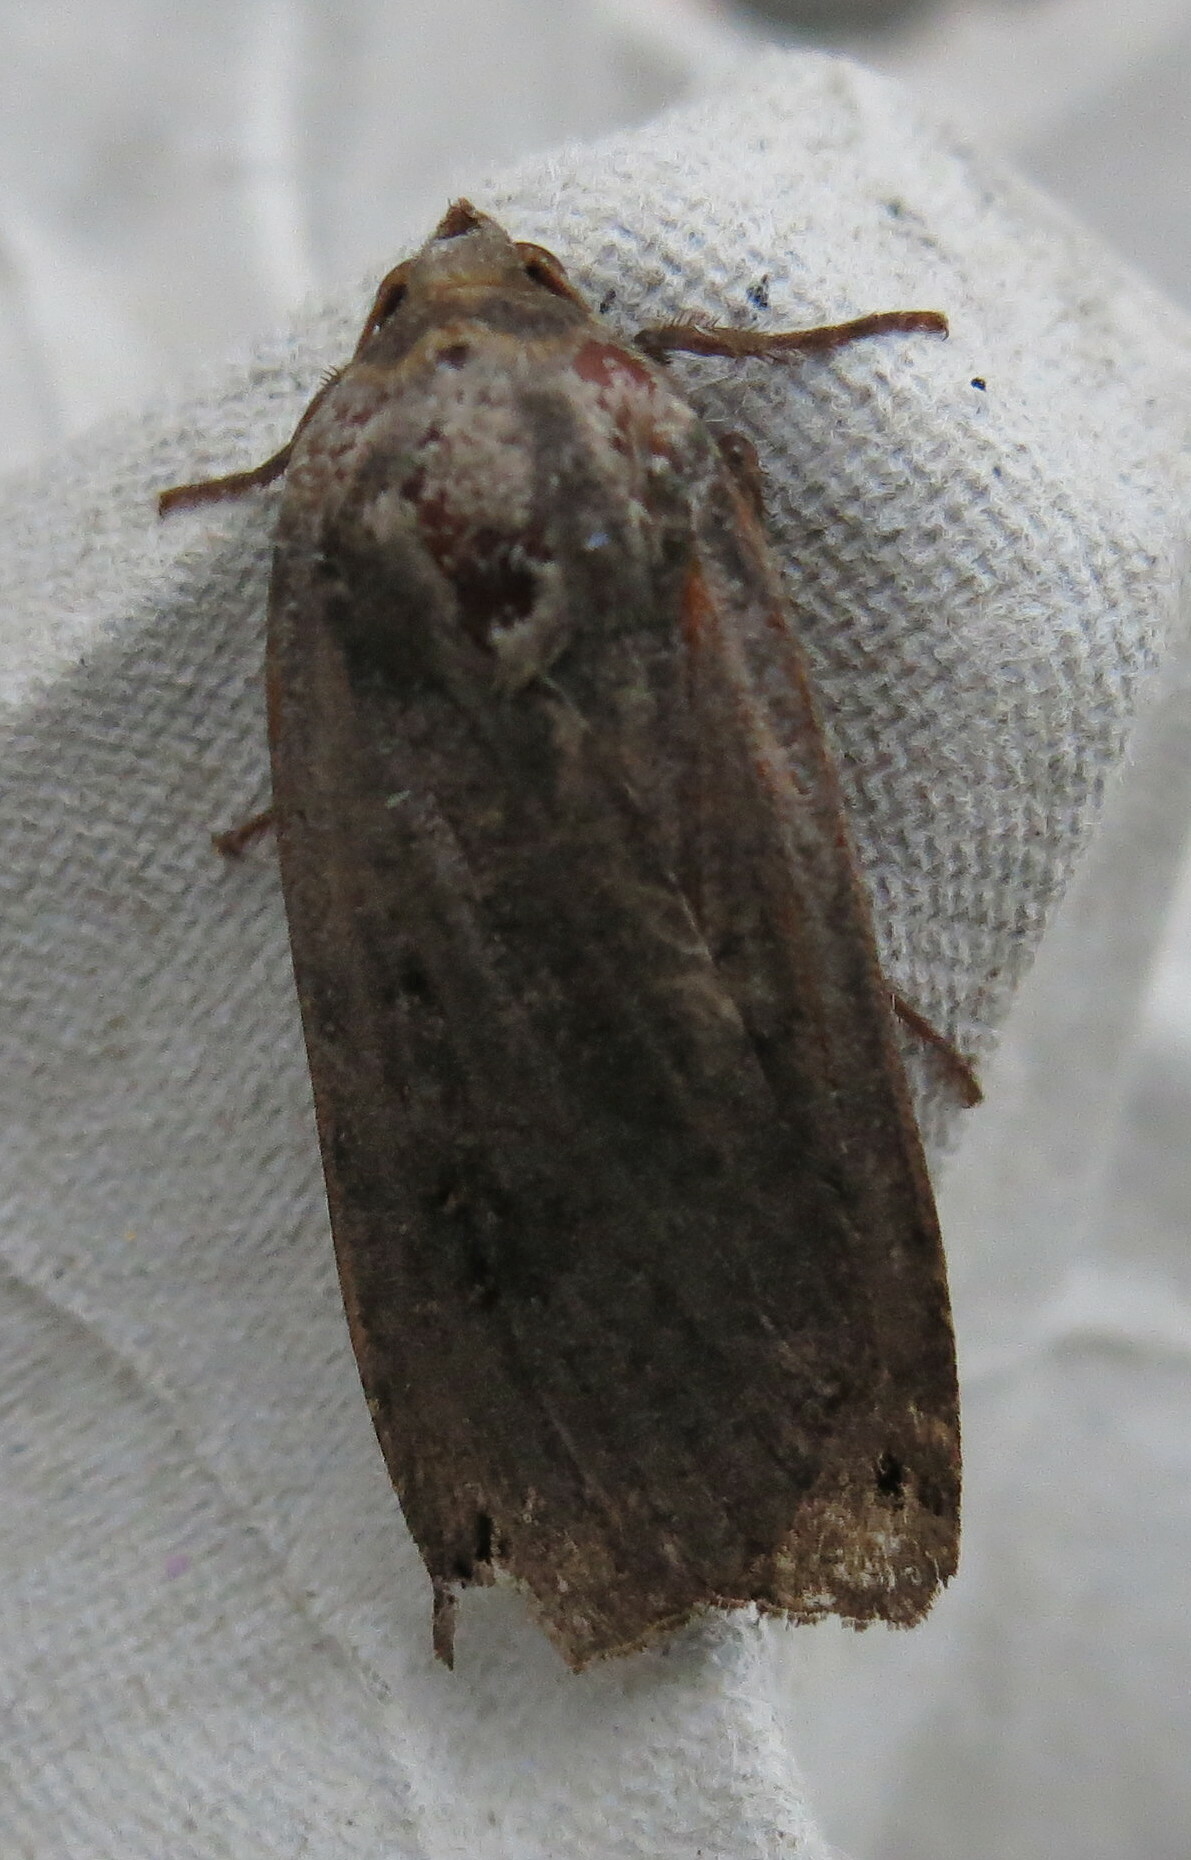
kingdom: Animalia
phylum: Arthropoda
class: Insecta
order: Lepidoptera
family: Noctuidae
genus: Noctua
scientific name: Noctua pronuba
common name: Large yellow underwing
